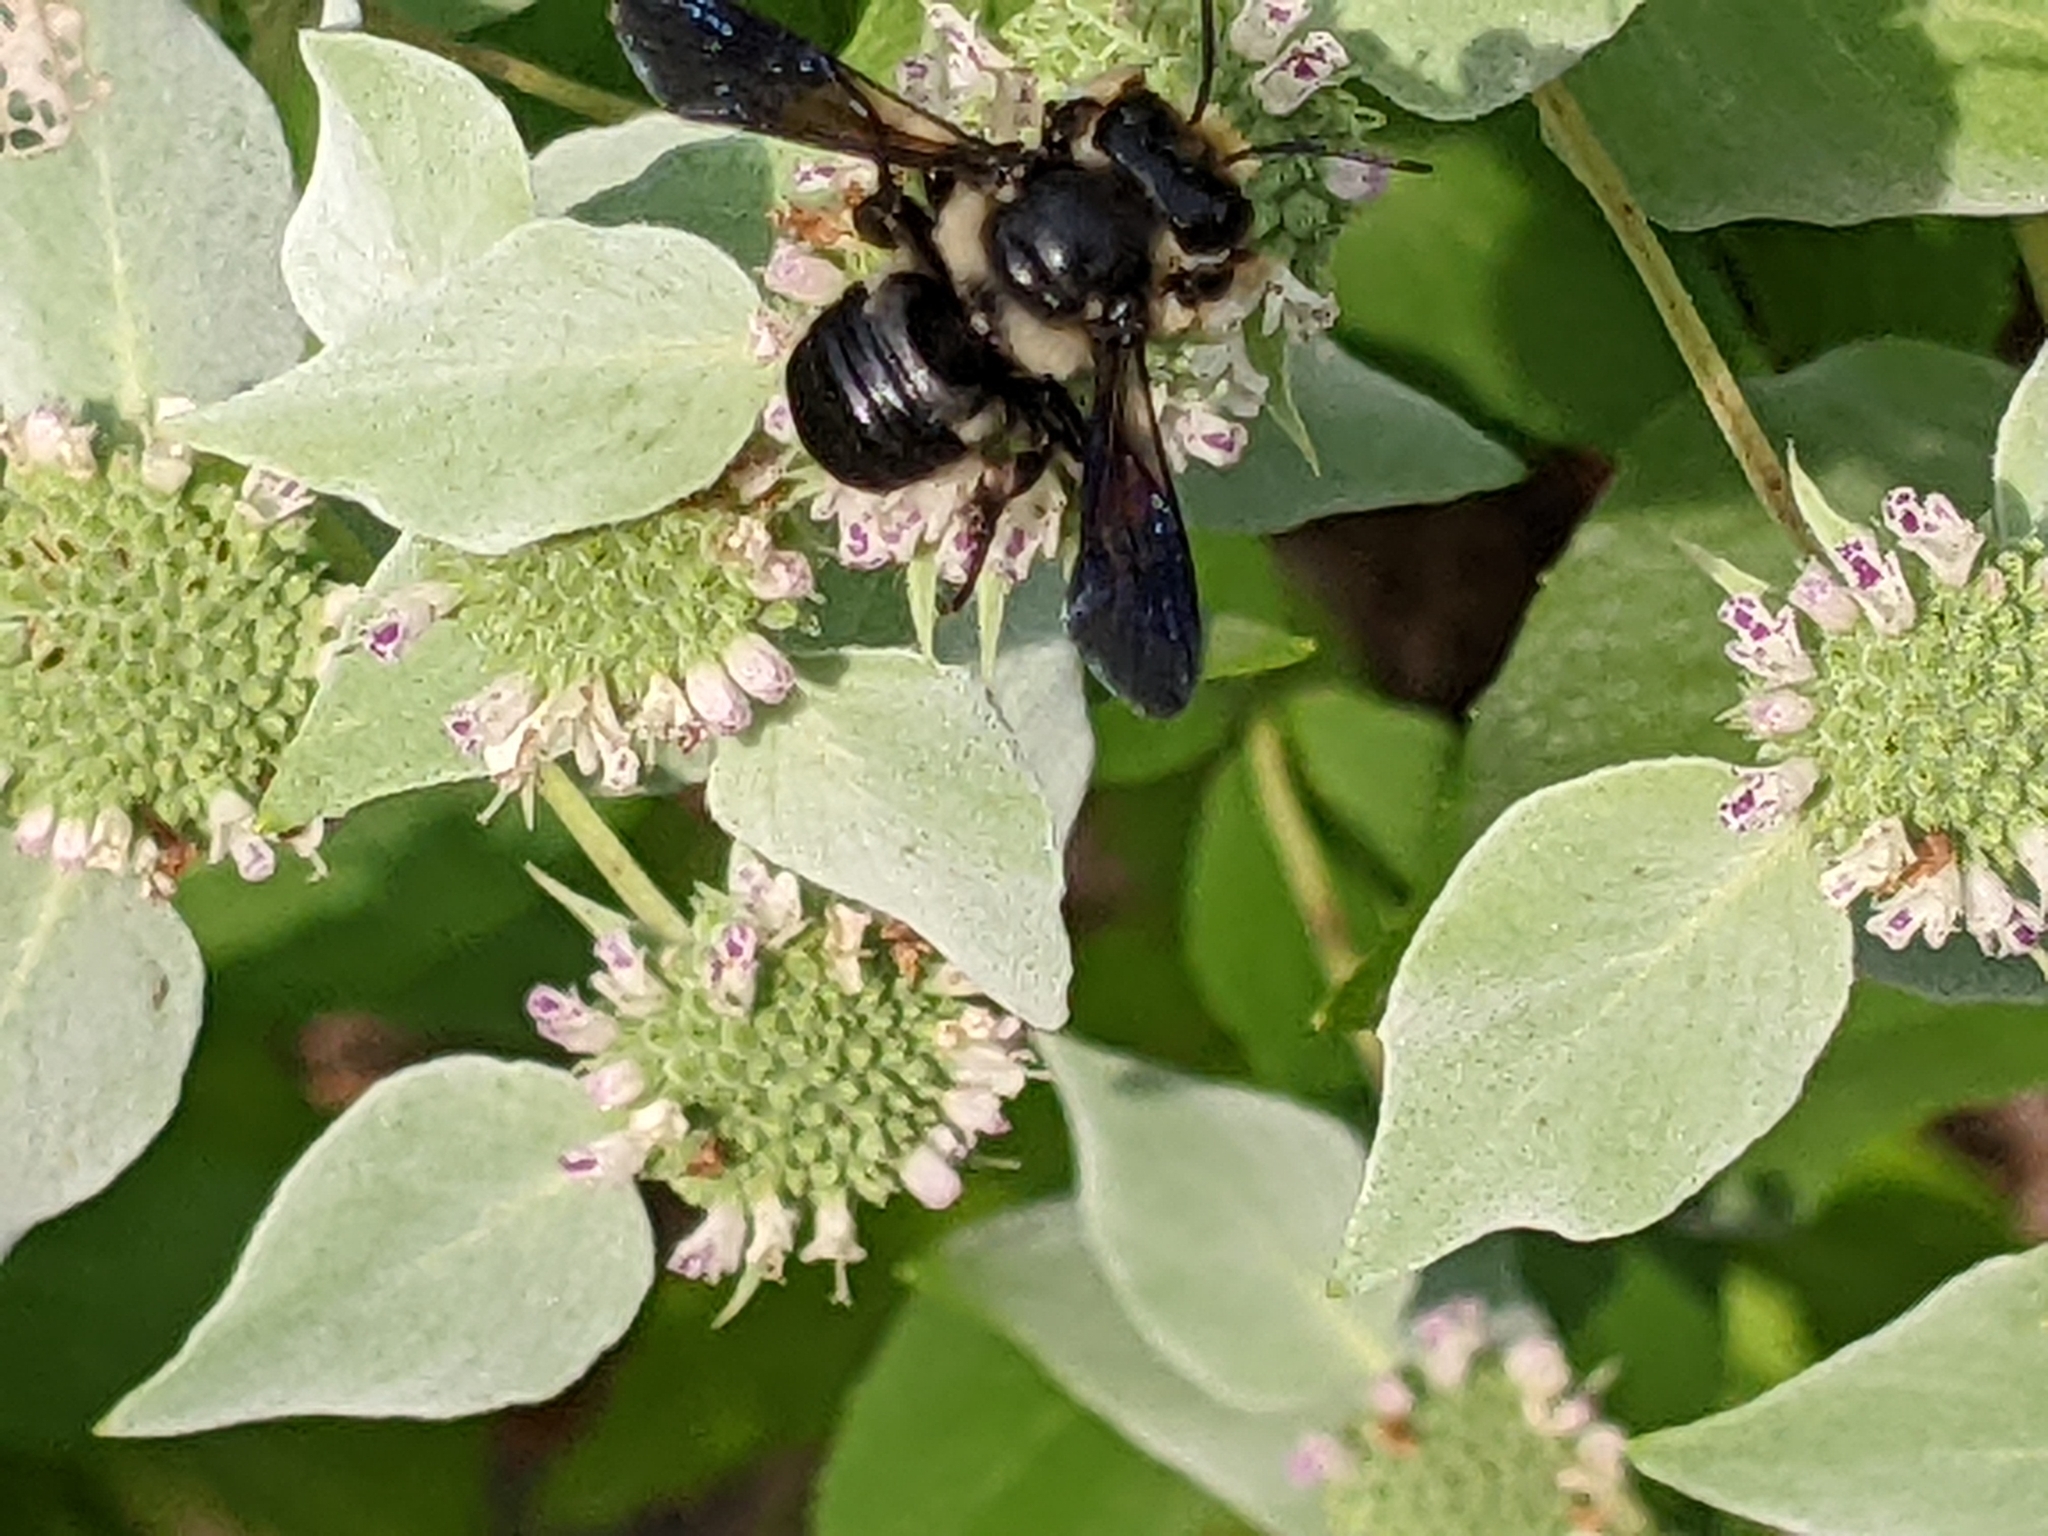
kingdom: Animalia
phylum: Arthropoda
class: Insecta
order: Hymenoptera
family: Megachilidae
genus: Megachile
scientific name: Megachile xylocopoides
